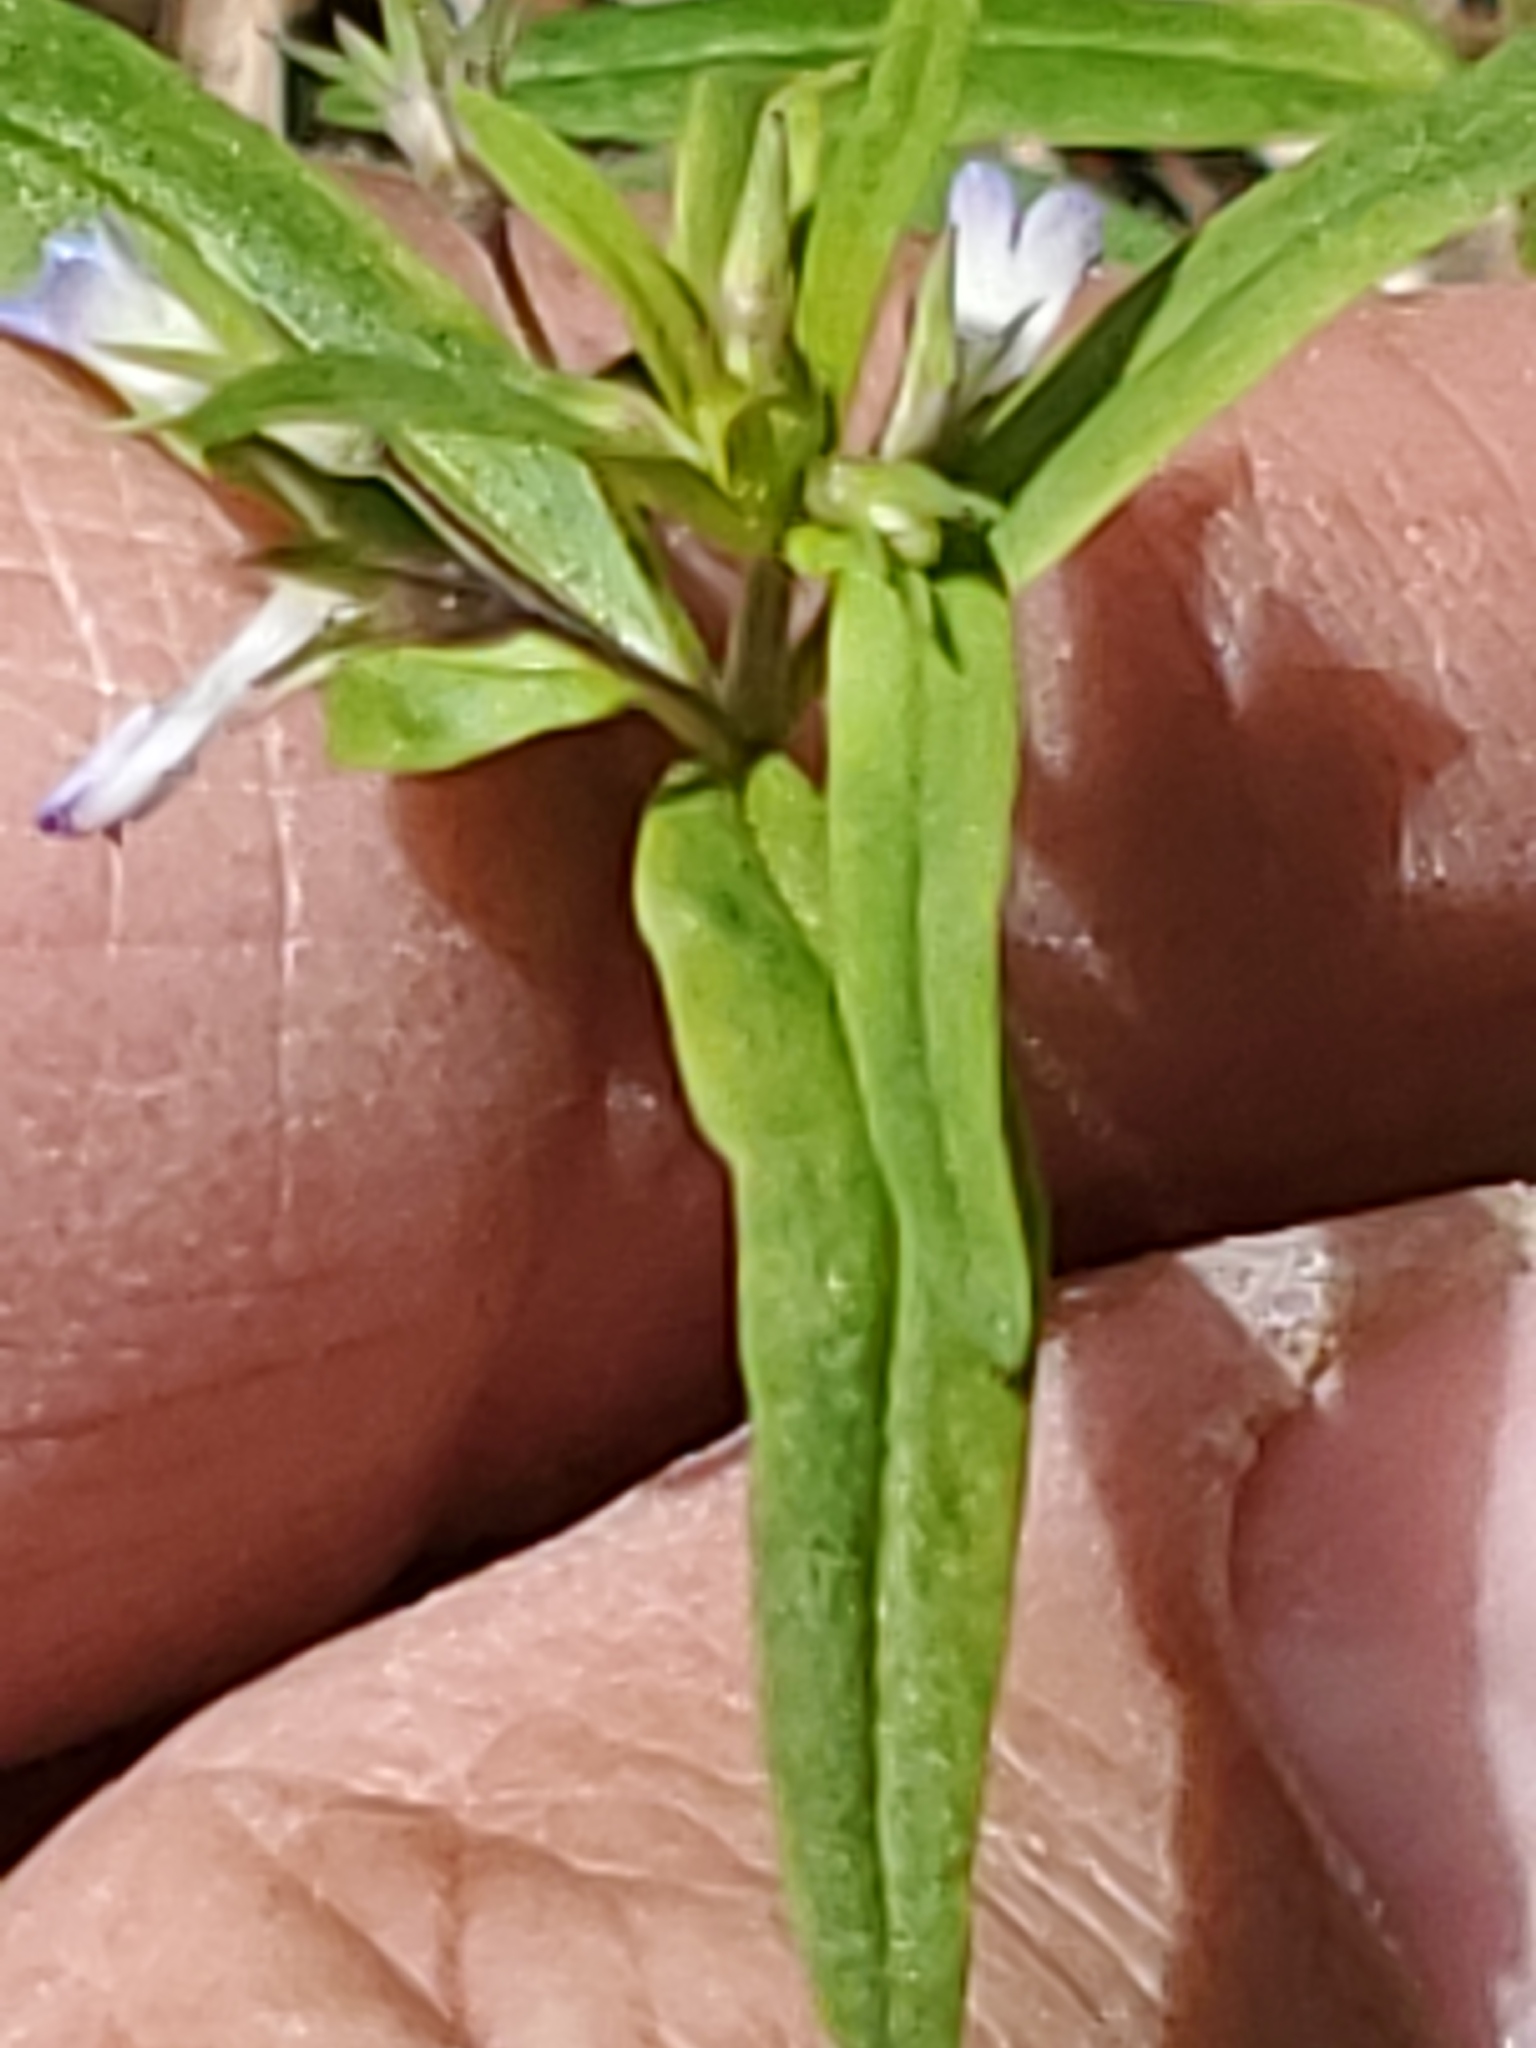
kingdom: Plantae
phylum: Tracheophyta
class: Magnoliopsida
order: Lamiales
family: Plantaginaceae
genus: Collinsia
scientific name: Collinsia parviflora
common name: Blue-lips
